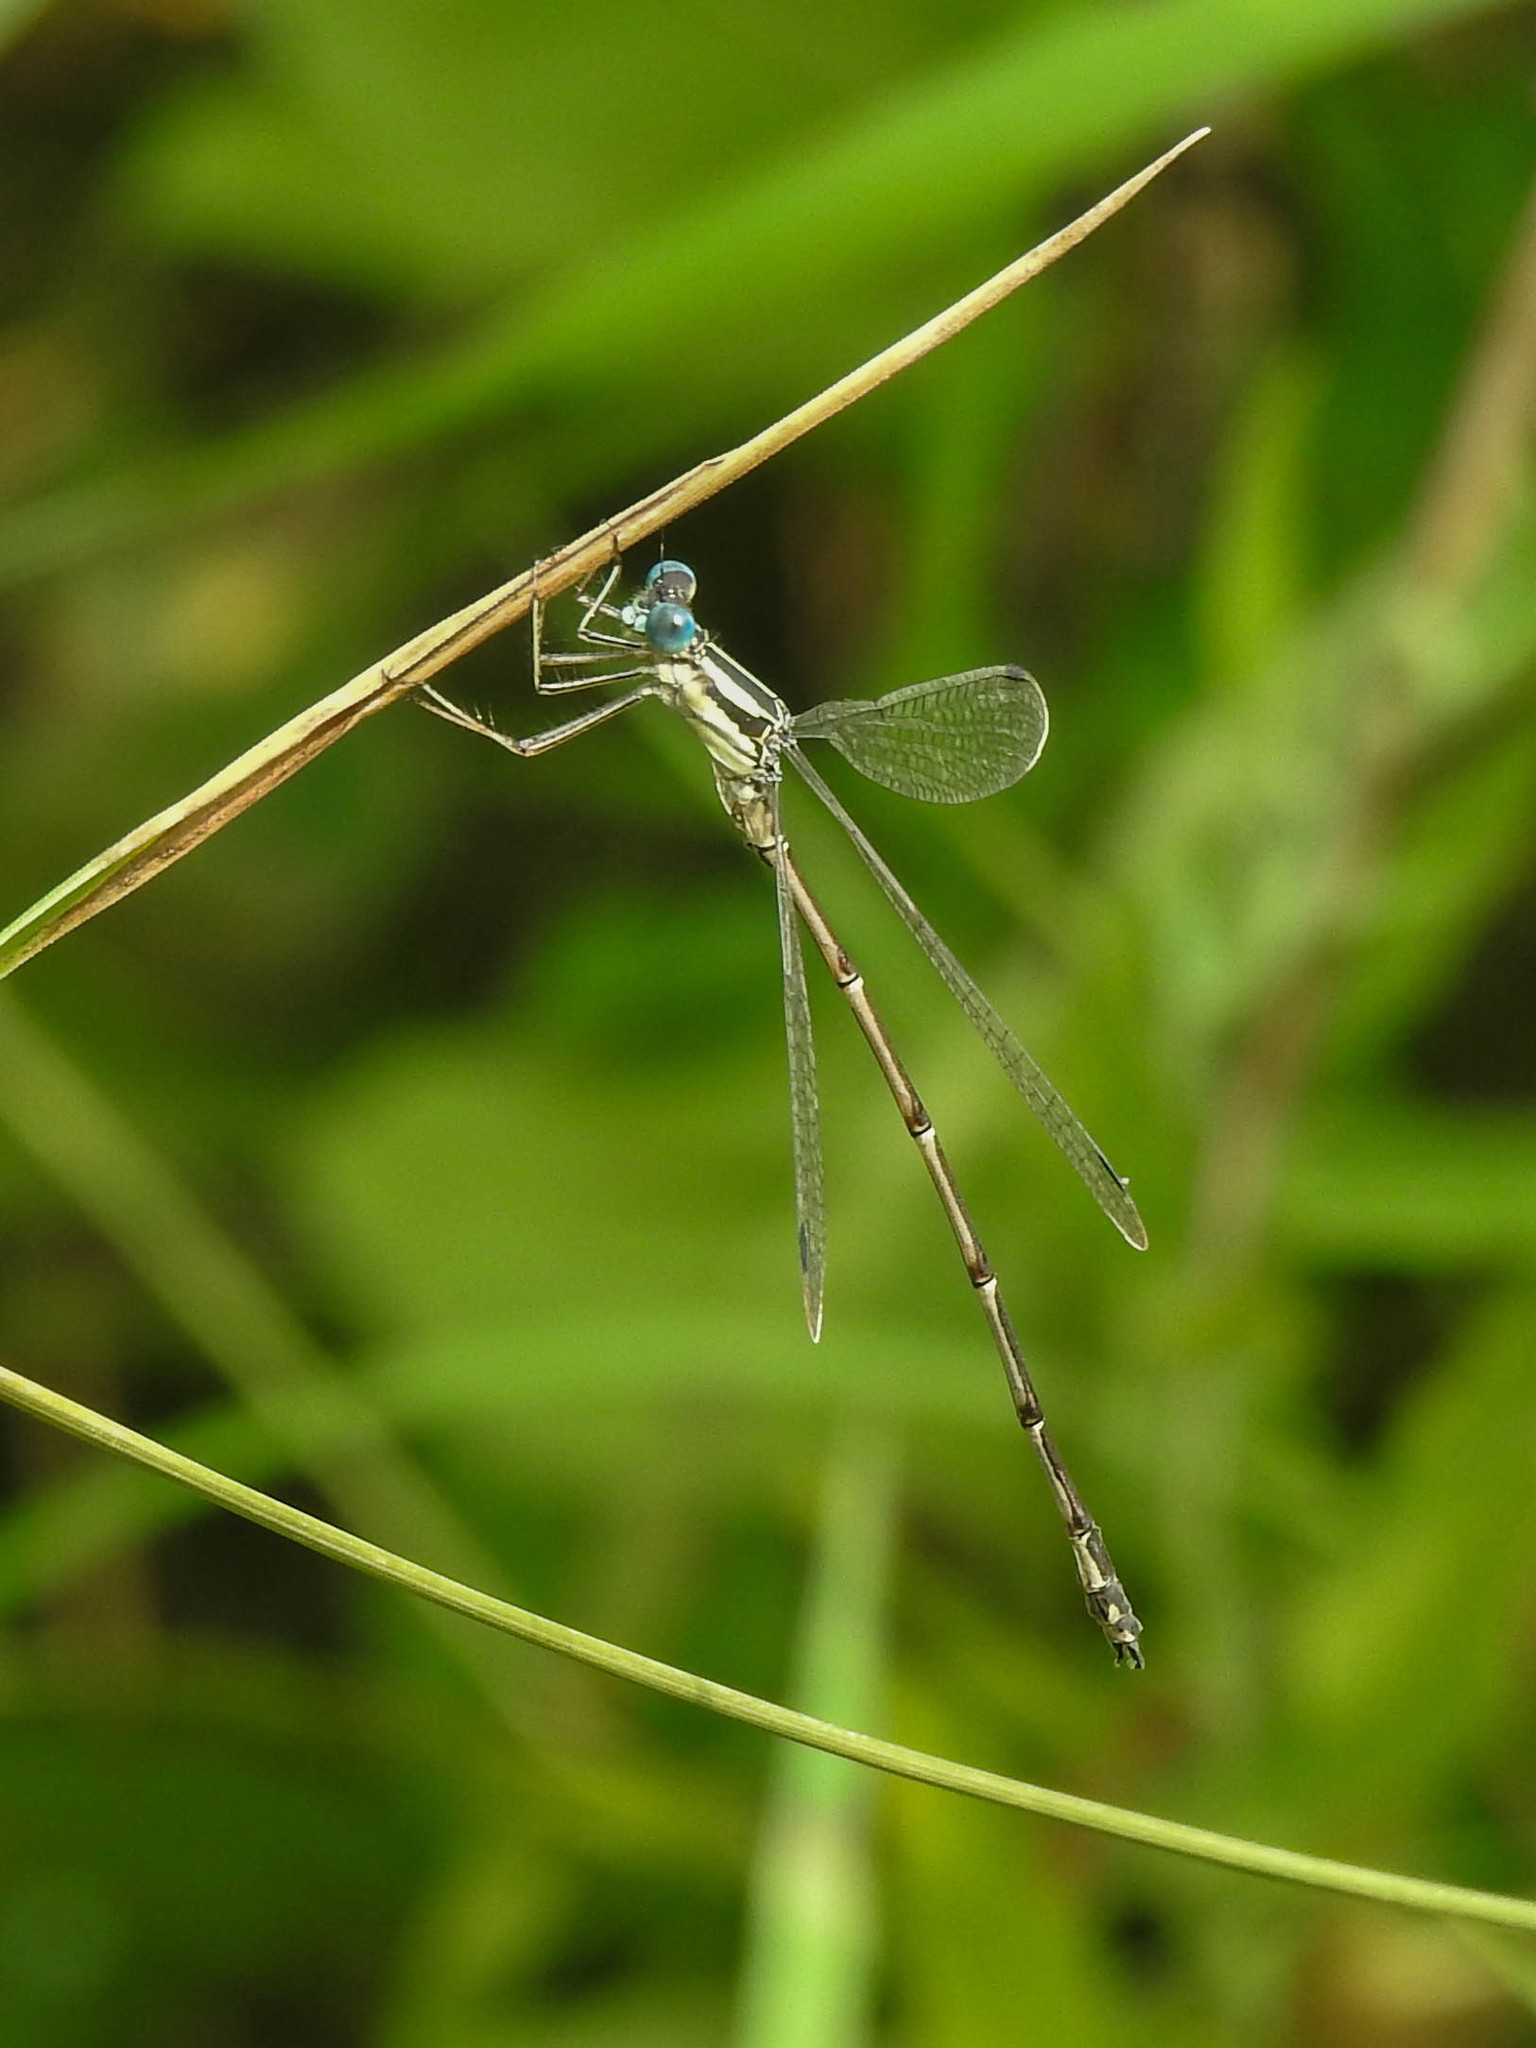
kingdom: Animalia
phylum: Arthropoda
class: Insecta
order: Odonata
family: Lestidae
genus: Lestes
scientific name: Lestes rectangularis
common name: Slender spreadwing
